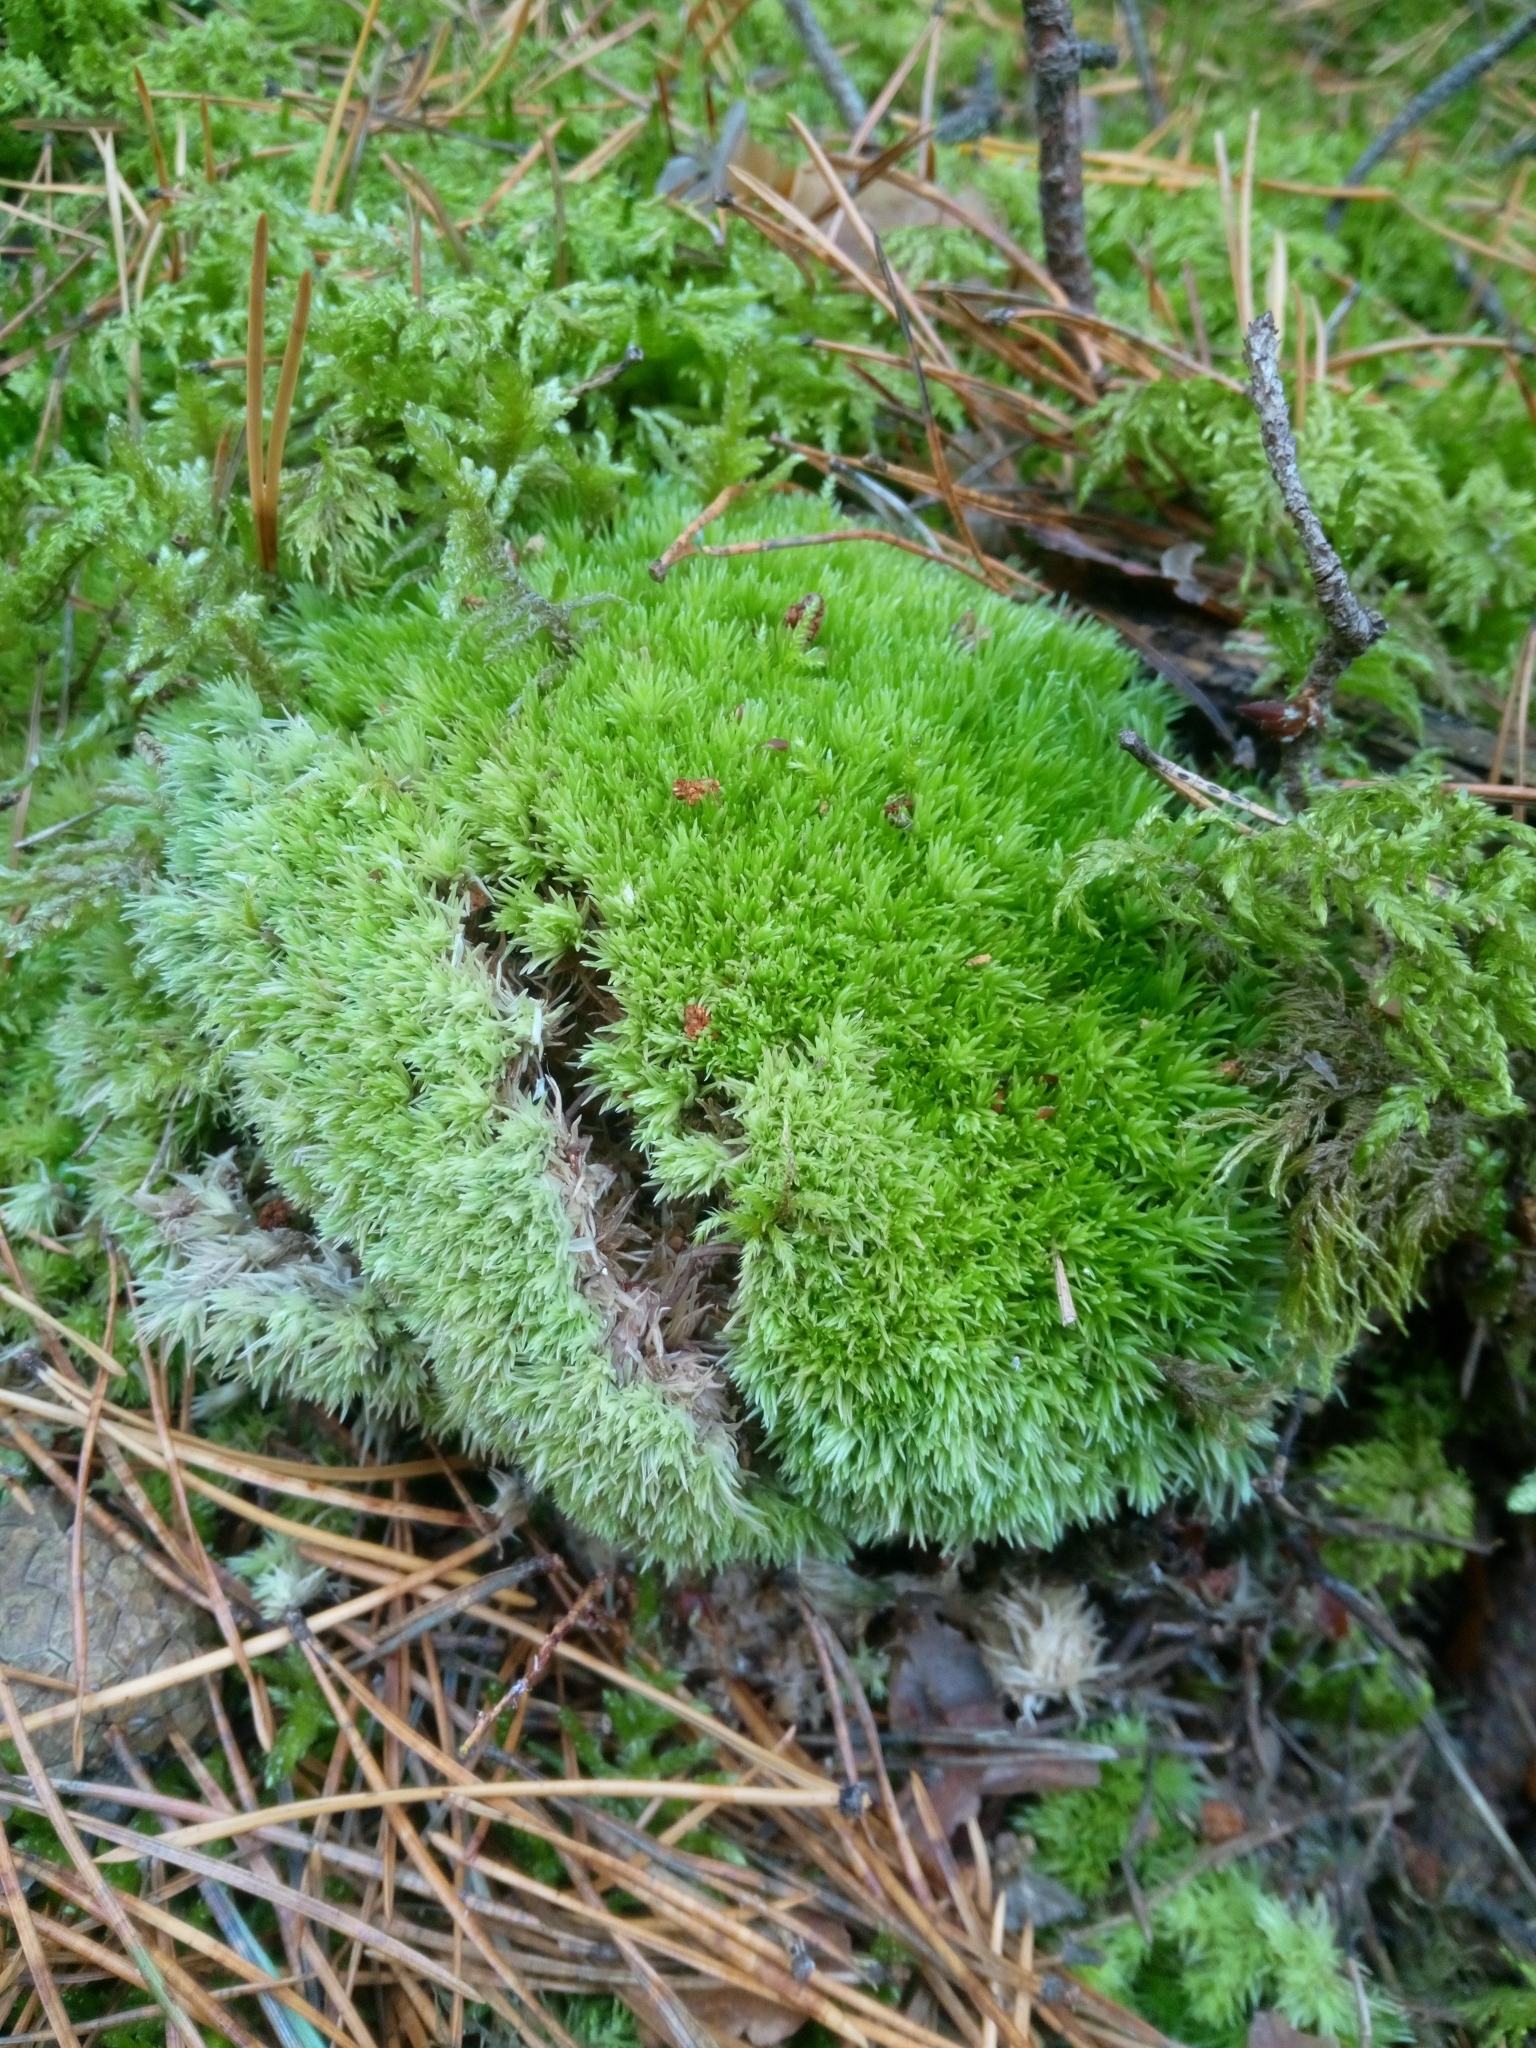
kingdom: Plantae
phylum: Bryophyta
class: Bryopsida
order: Dicranales
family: Leucobryaceae
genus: Leucobryum
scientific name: Leucobryum glaucum
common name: Large white-moss
